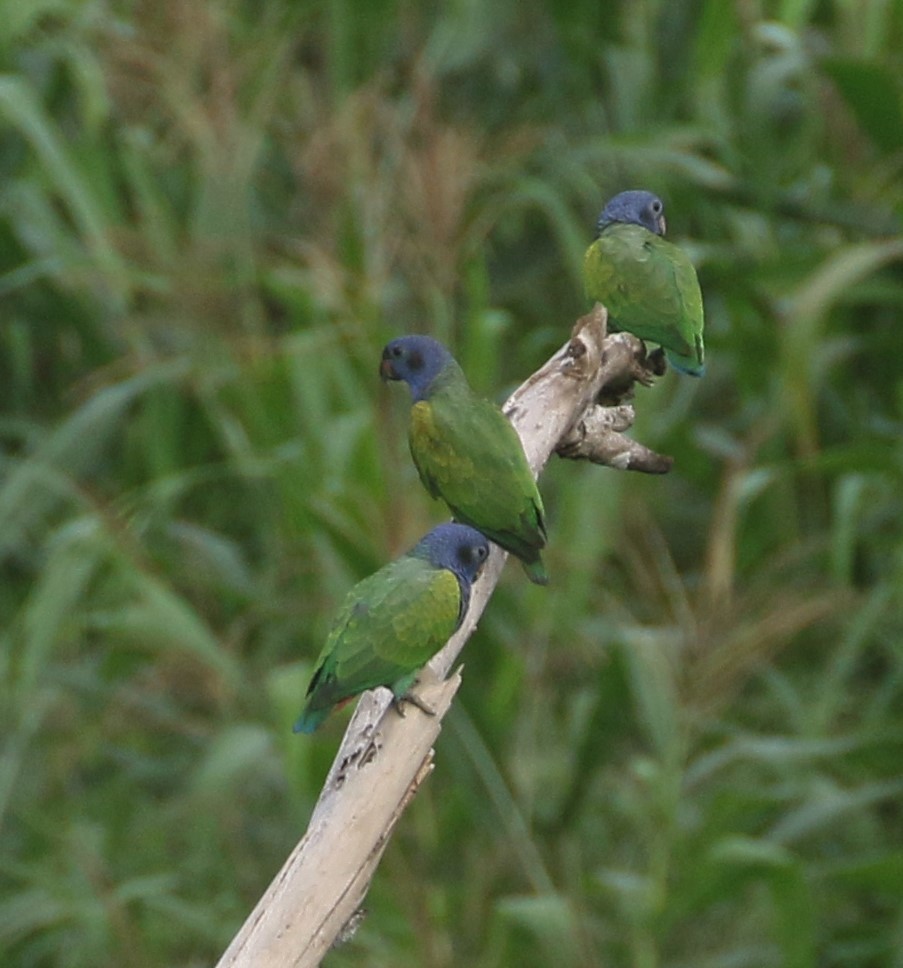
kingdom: Animalia
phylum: Chordata
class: Aves
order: Psittaciformes
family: Psittacidae
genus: Pionus
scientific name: Pionus menstruus
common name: Blue-headed parrot
